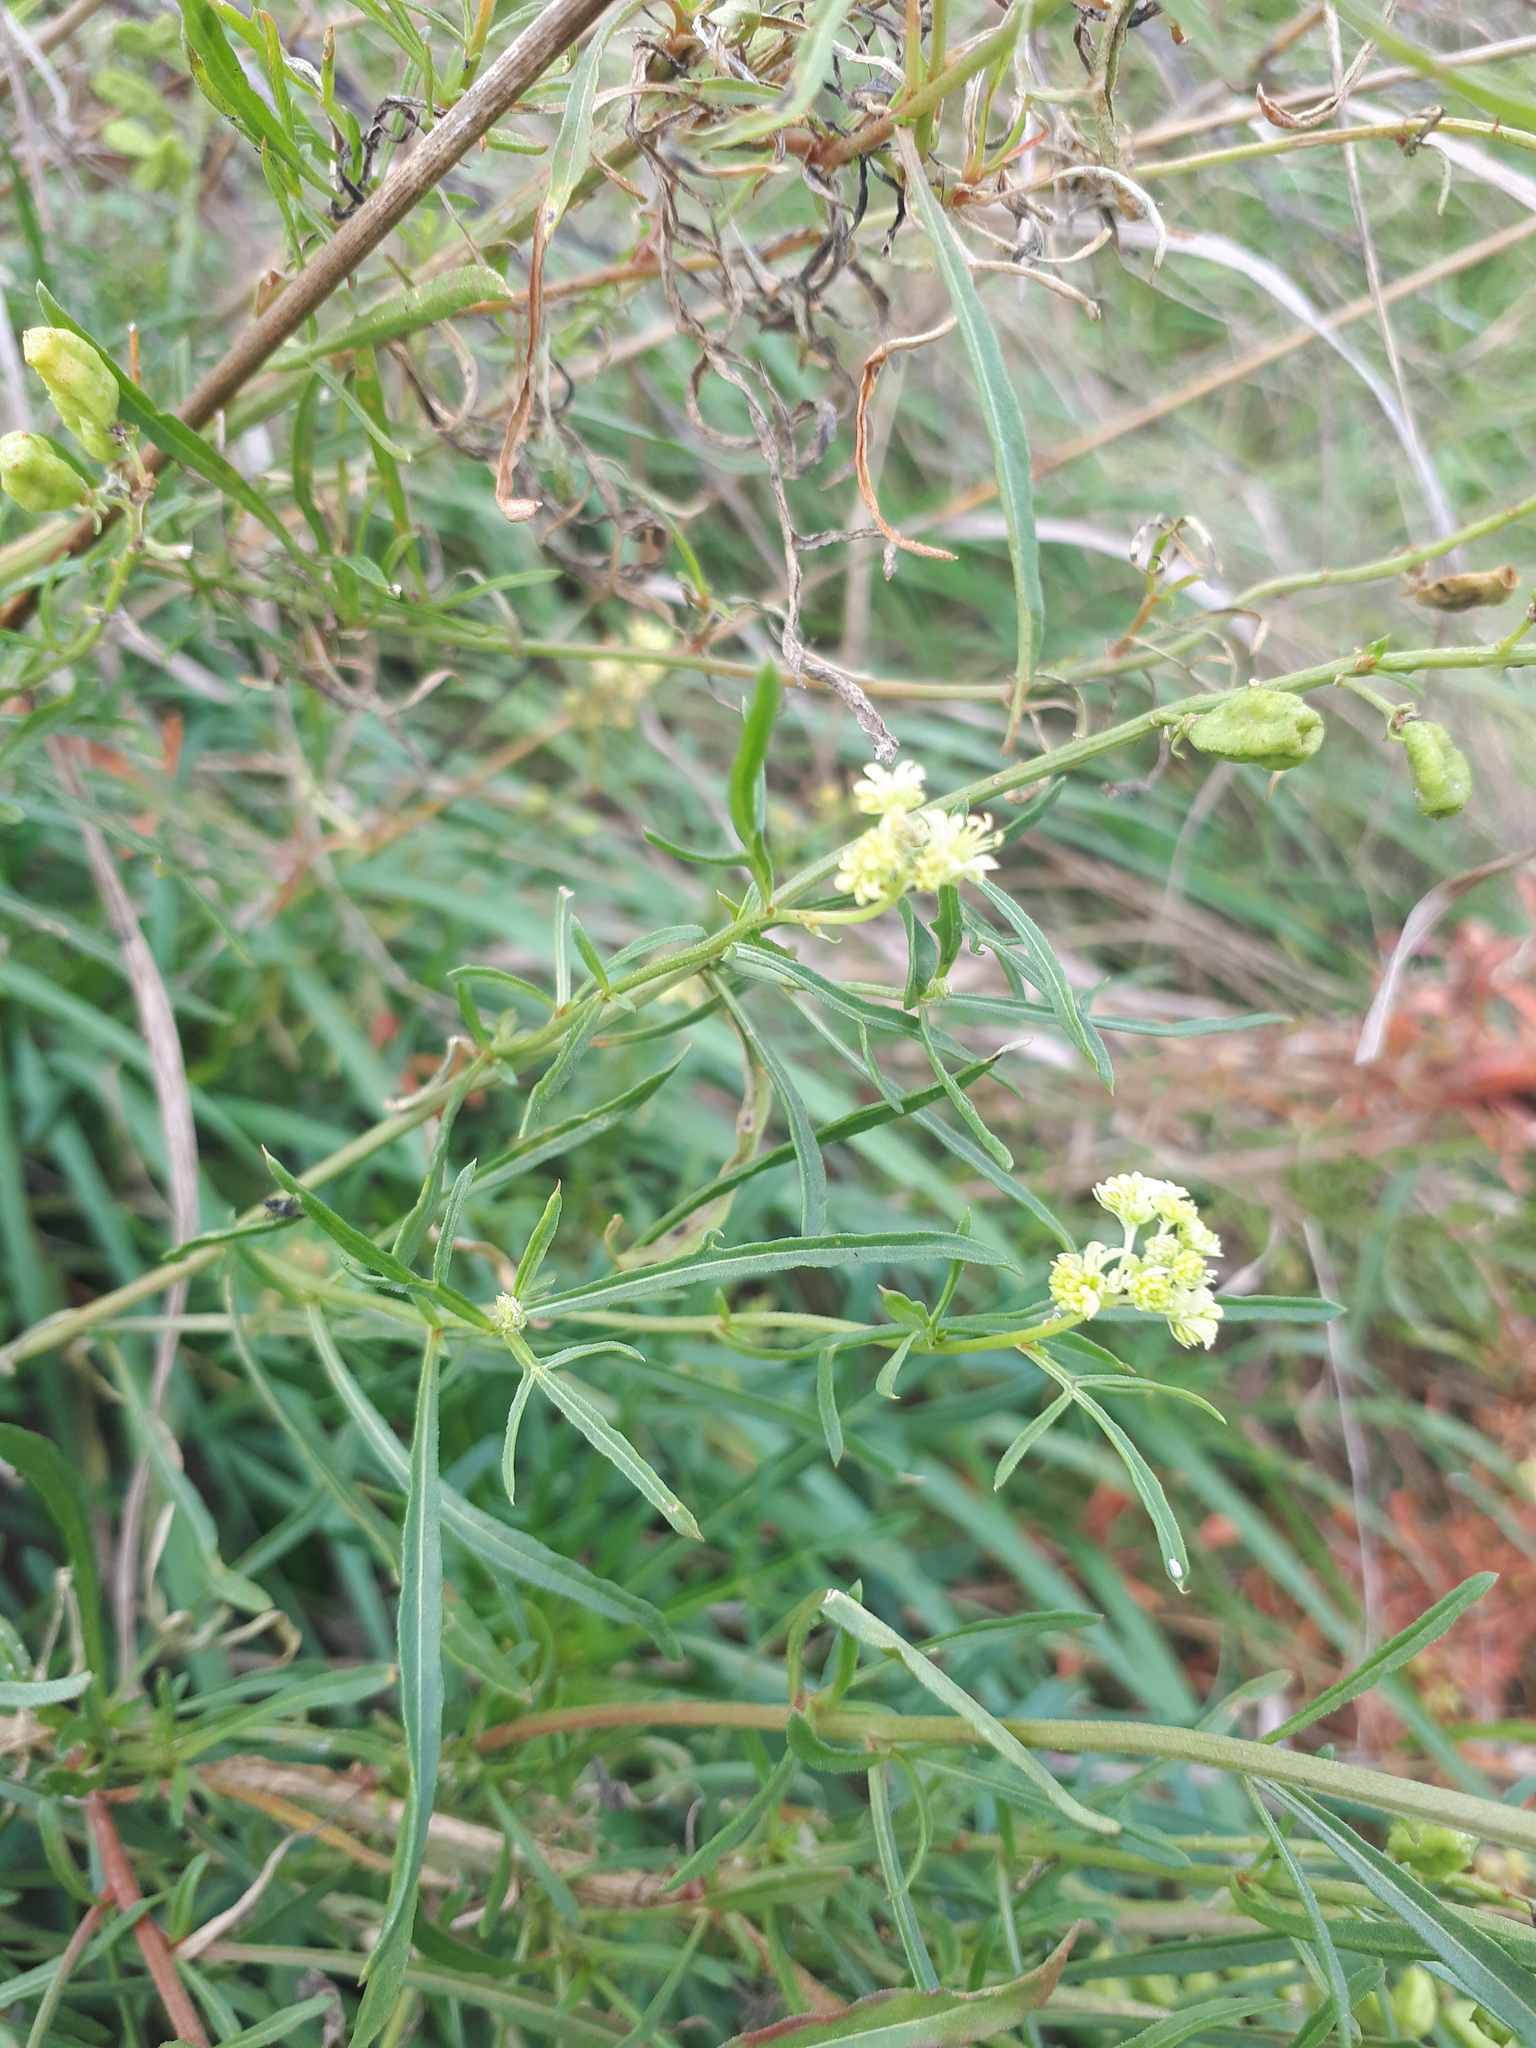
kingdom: Plantae
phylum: Tracheophyta
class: Magnoliopsida
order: Brassicales
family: Resedaceae
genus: Reseda
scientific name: Reseda lutea
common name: Wild mignonette
